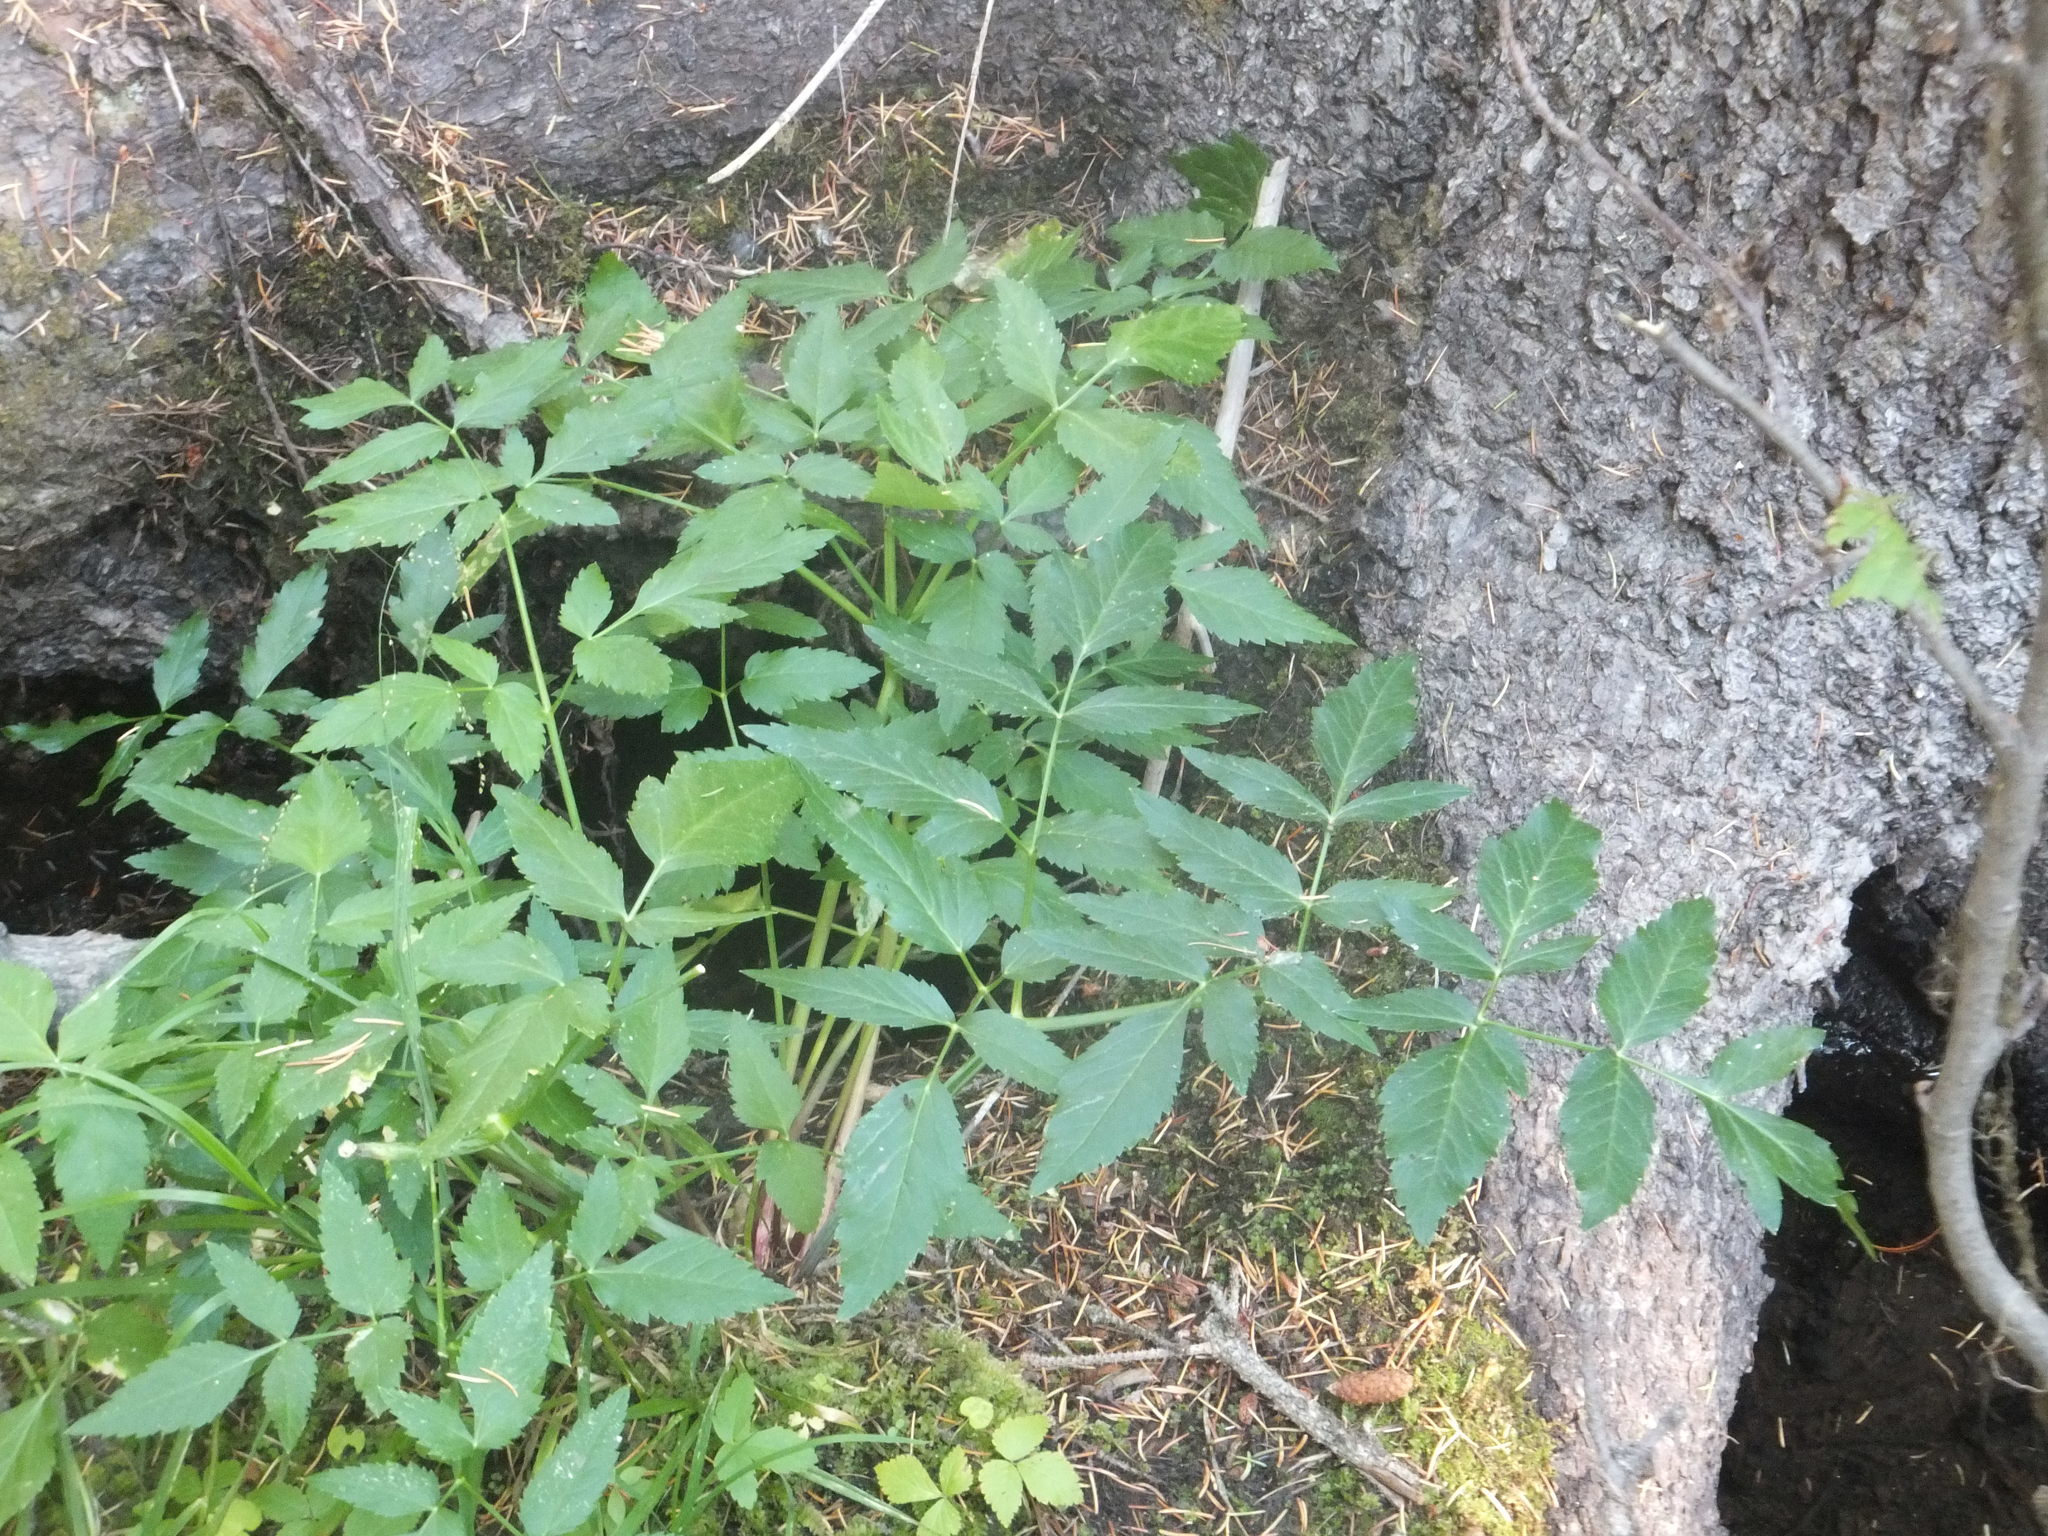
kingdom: Plantae
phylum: Tracheophyta
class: Magnoliopsida
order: Apiales
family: Apiaceae
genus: Angelica
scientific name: Angelica arguta
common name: Lyall's angelica
